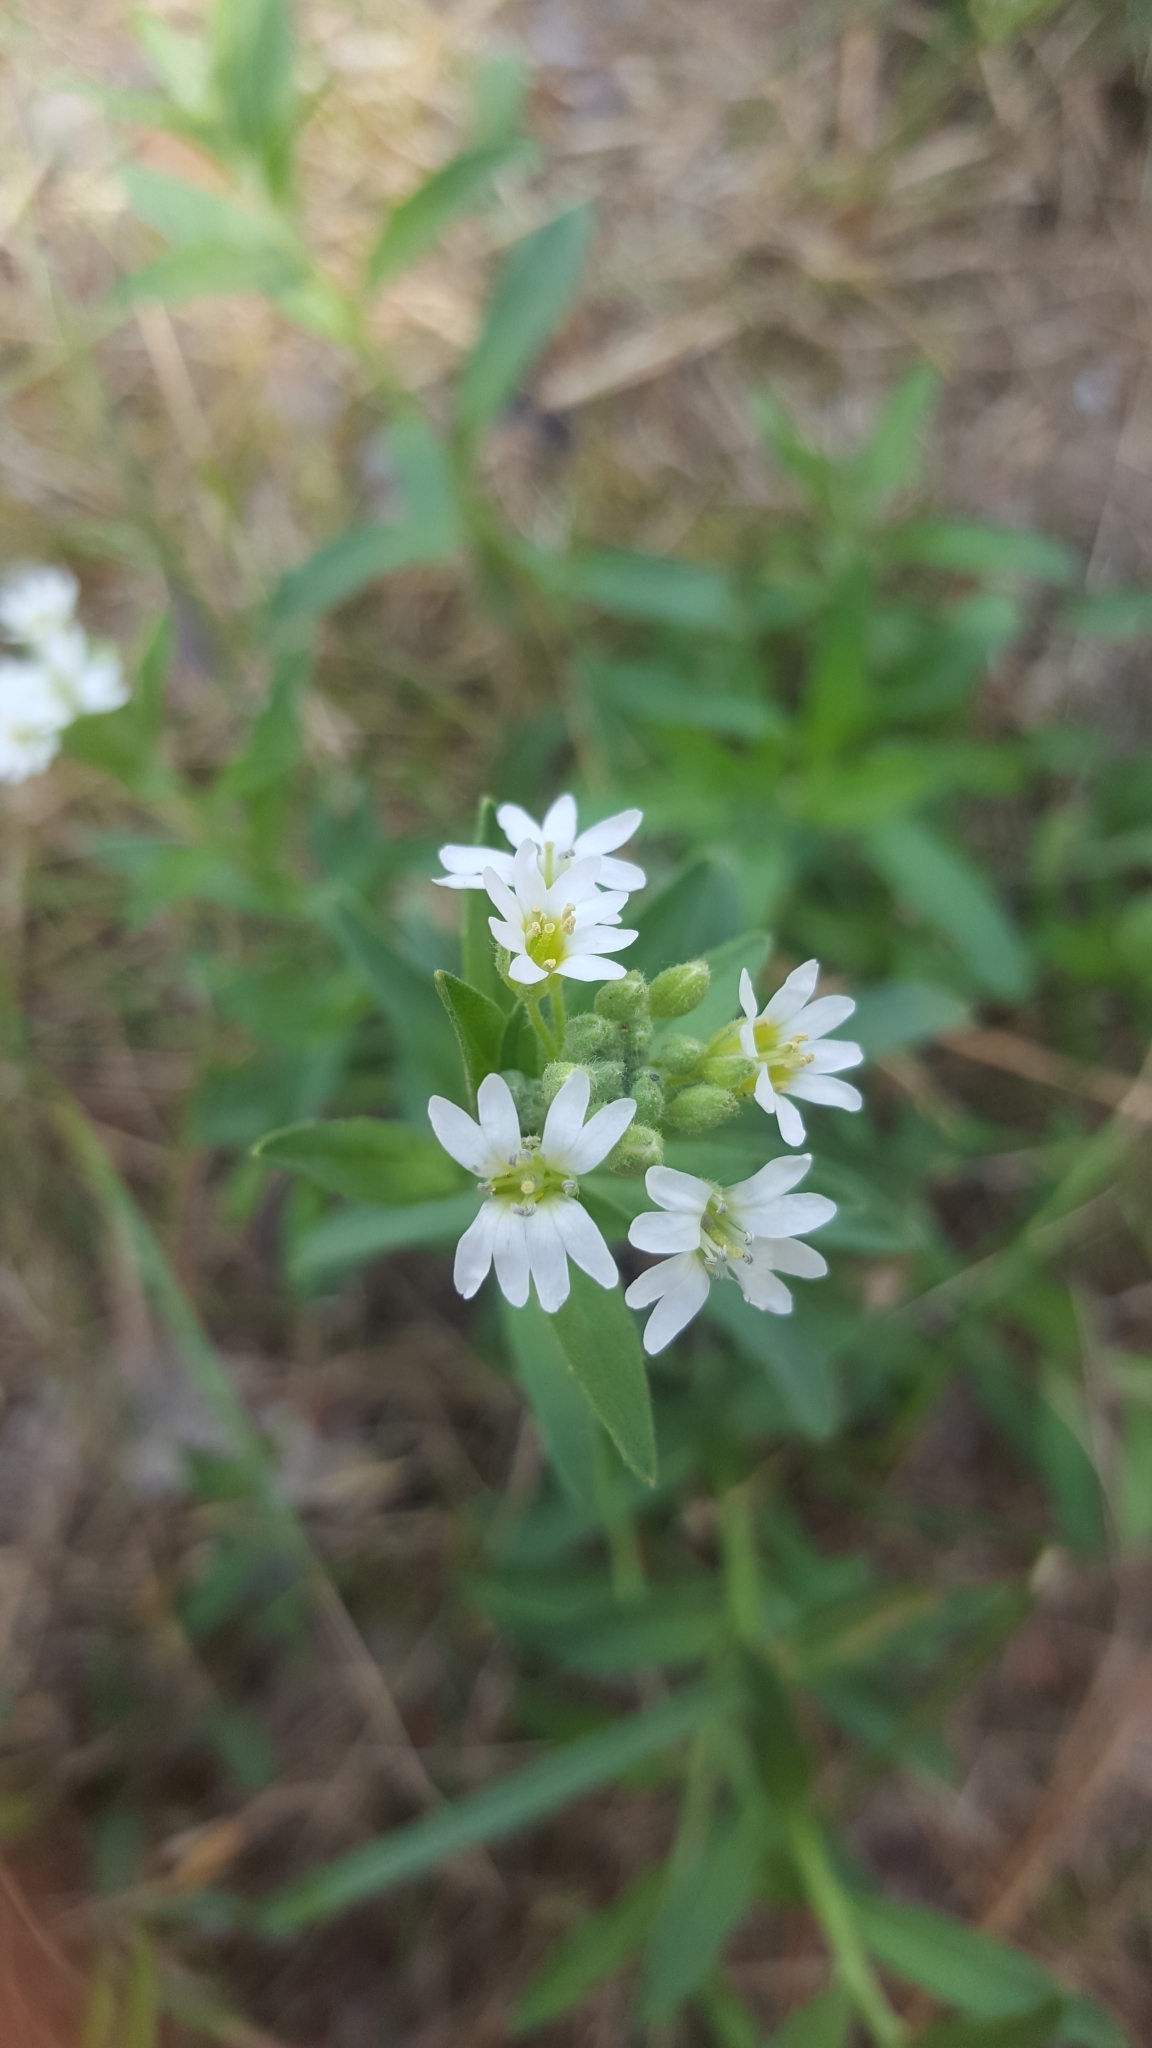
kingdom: Plantae
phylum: Tracheophyta
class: Magnoliopsida
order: Brassicales
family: Brassicaceae
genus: Berteroa
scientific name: Berteroa incana
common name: Hoary alison
